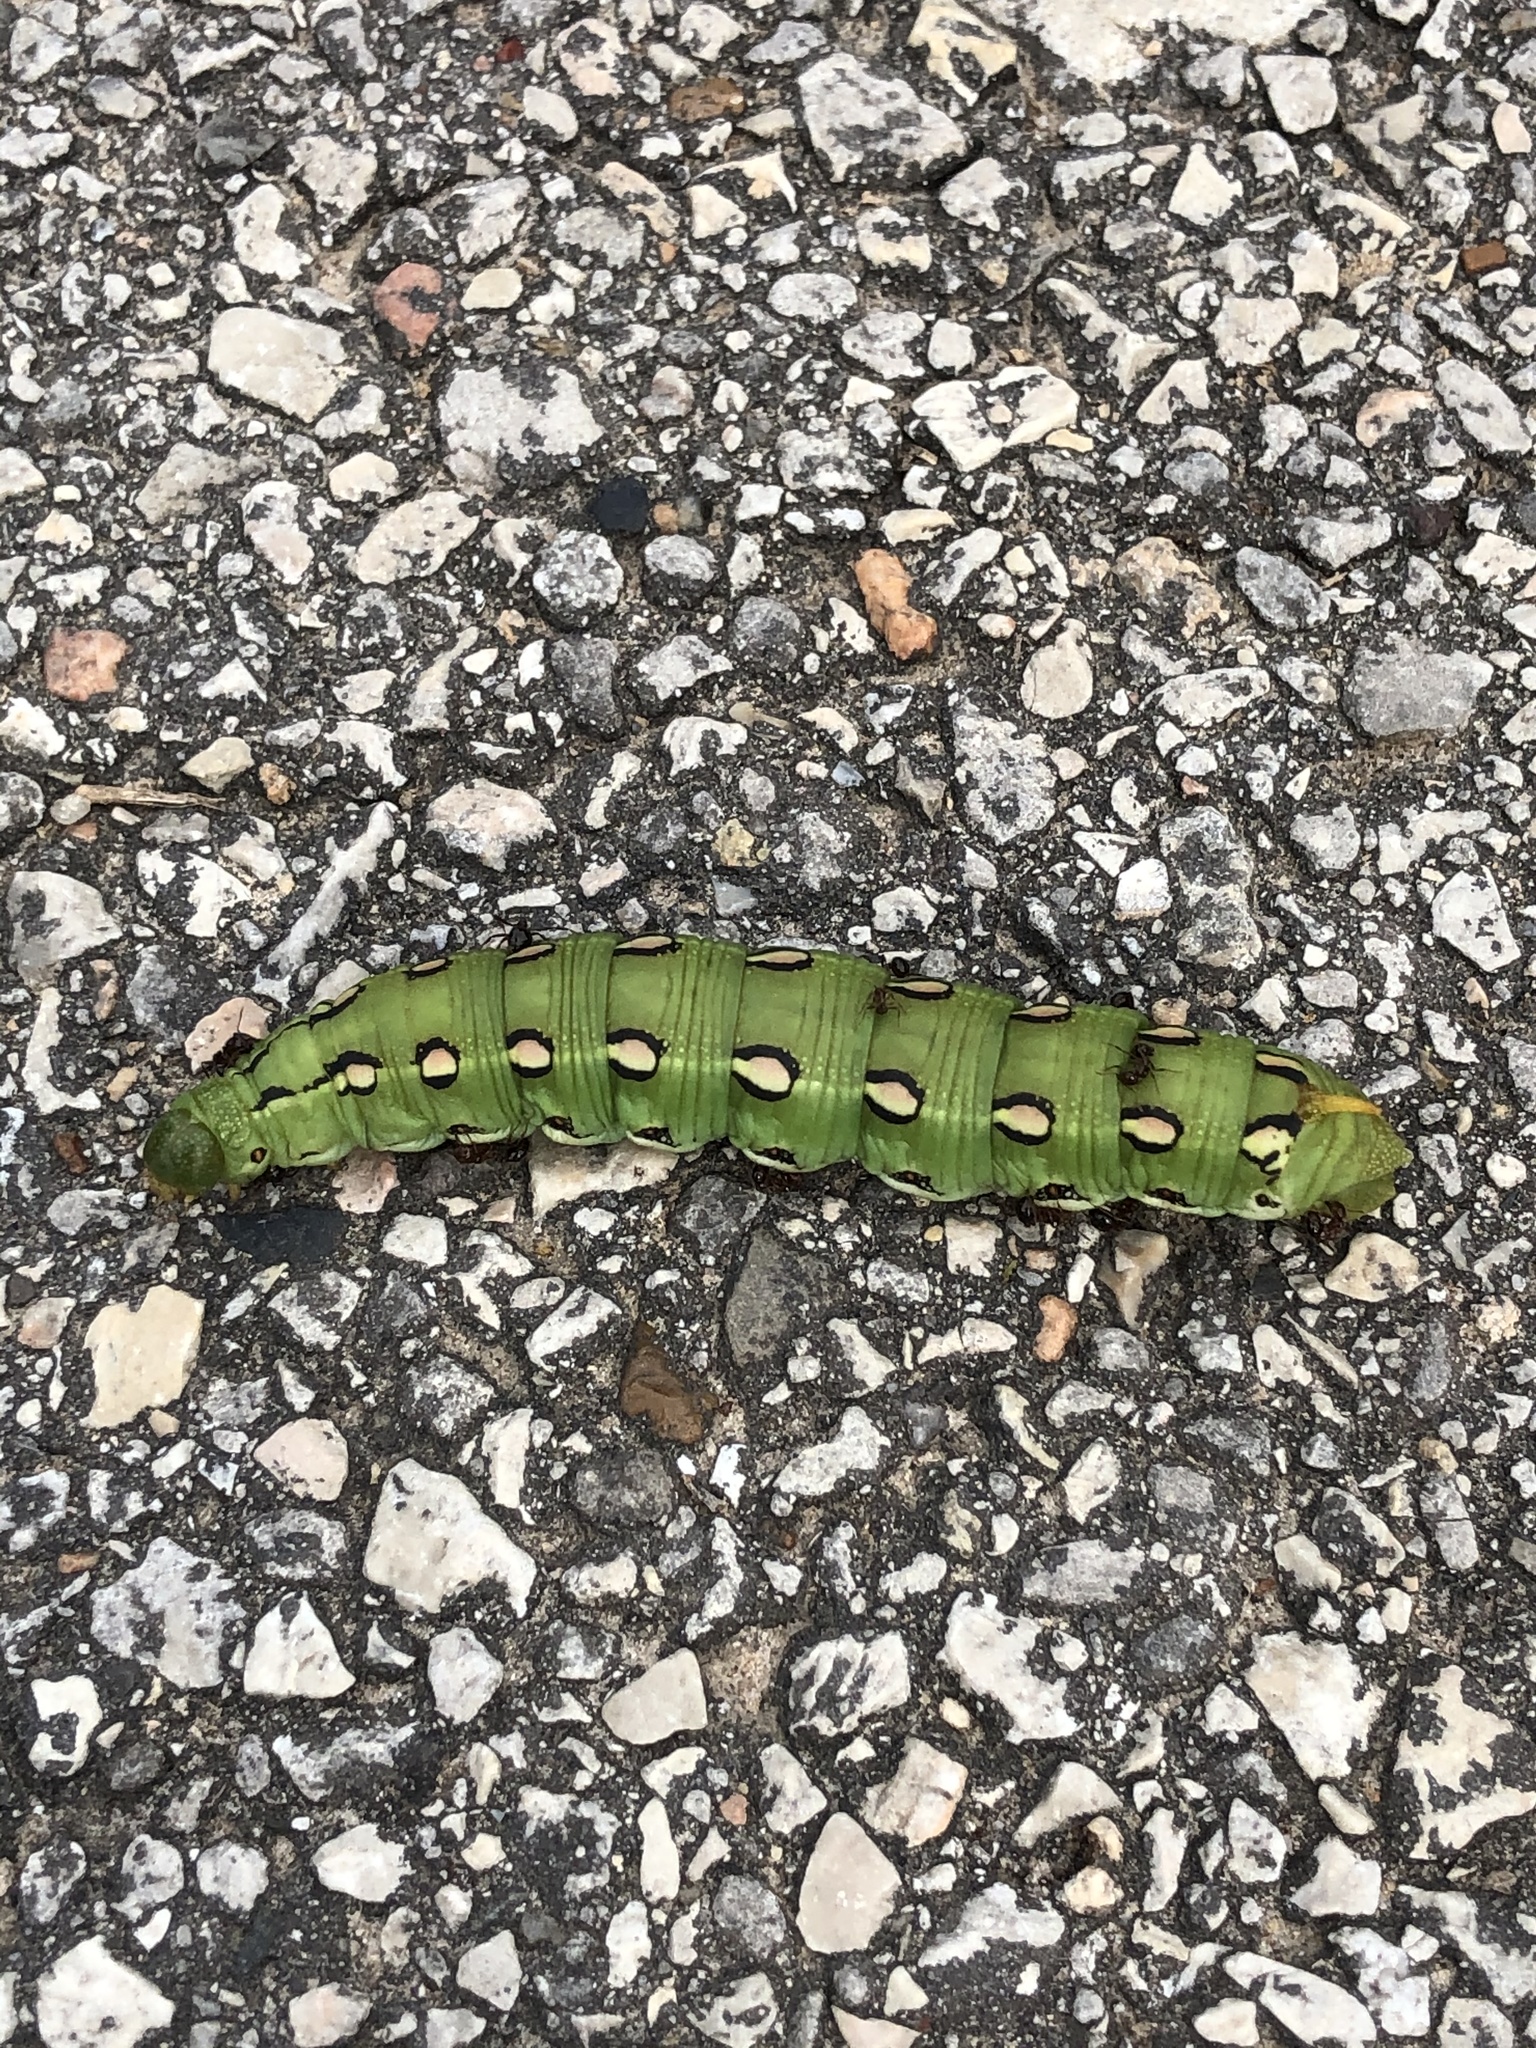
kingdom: Animalia
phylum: Arthropoda
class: Insecta
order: Lepidoptera
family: Sphingidae
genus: Hyles
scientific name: Hyles lineata
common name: White-lined sphinx
